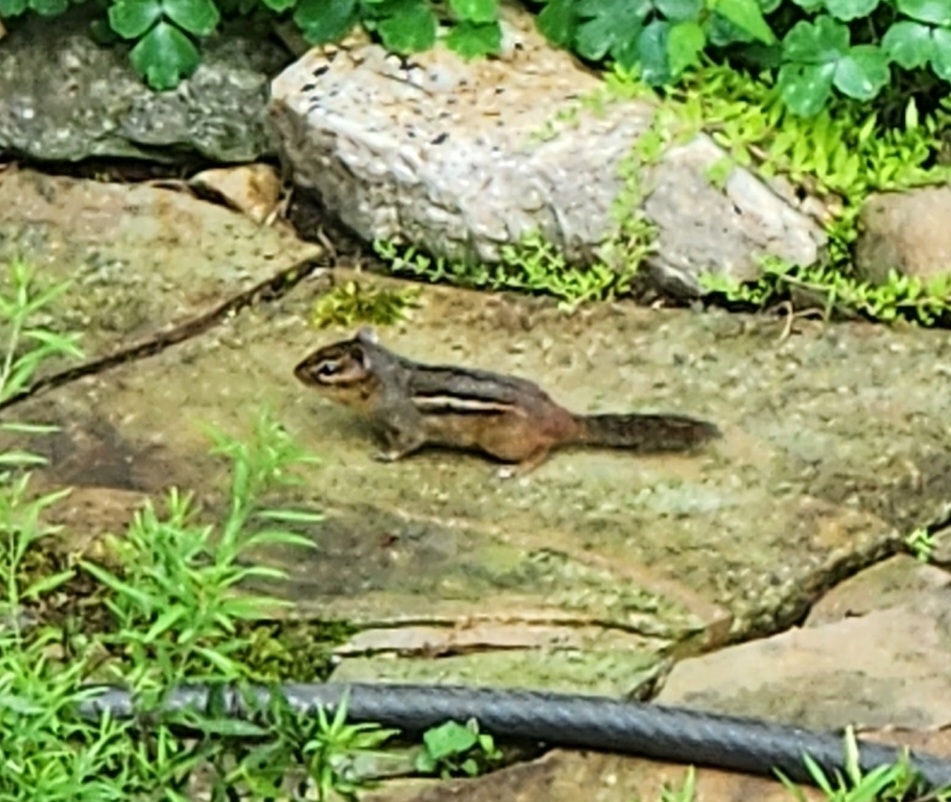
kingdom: Animalia
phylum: Chordata
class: Mammalia
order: Rodentia
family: Sciuridae
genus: Tamias
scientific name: Tamias striatus
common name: Eastern chipmunk
